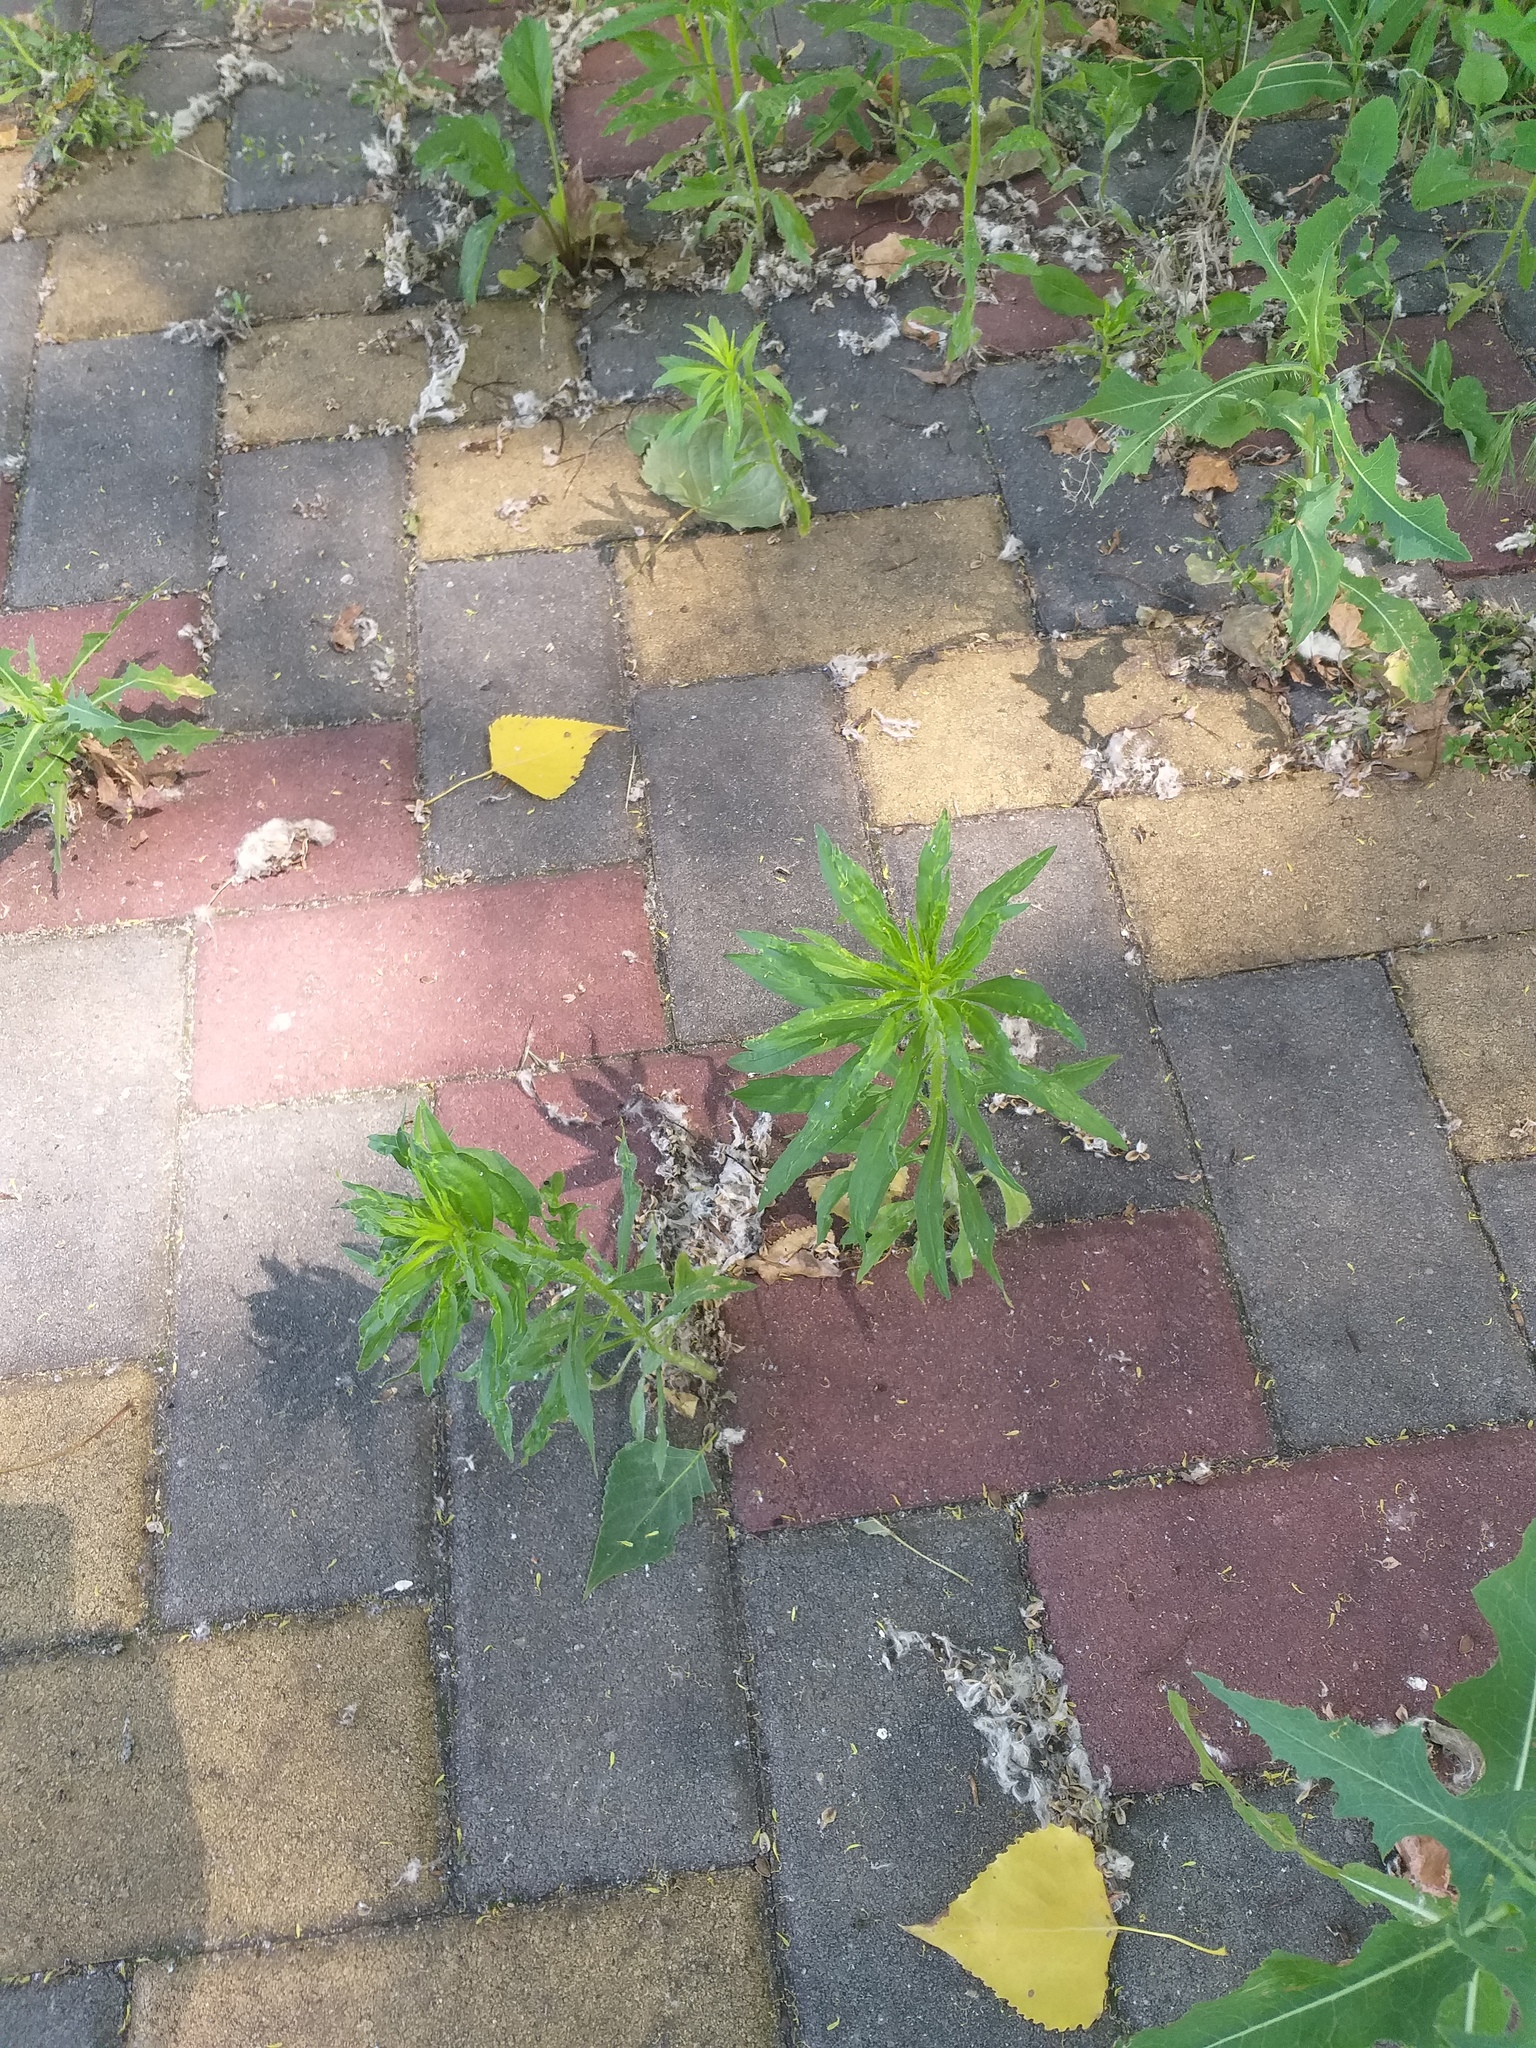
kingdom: Plantae
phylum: Tracheophyta
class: Magnoliopsida
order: Asterales
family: Asteraceae
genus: Erigeron
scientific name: Erigeron canadensis
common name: Canadian fleabane
